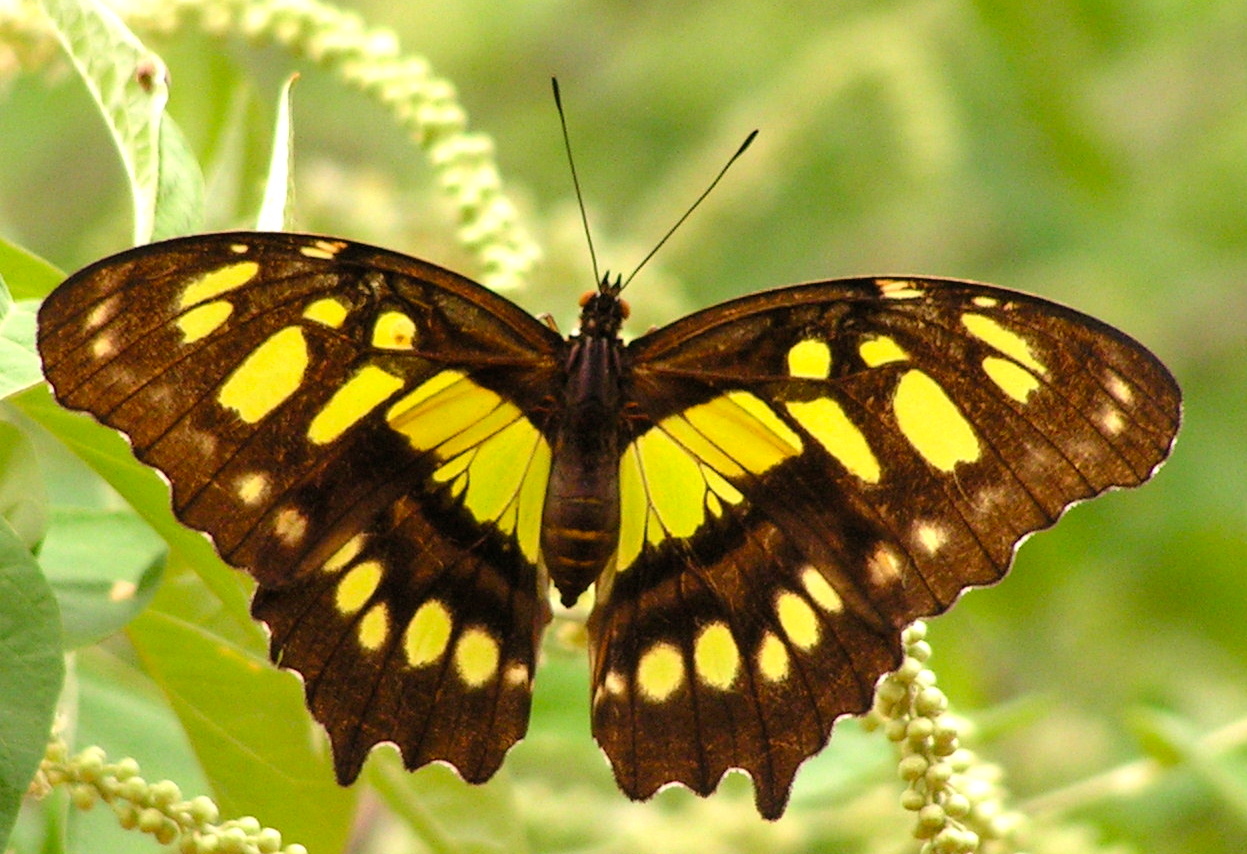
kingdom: Animalia
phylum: Arthropoda
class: Insecta
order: Lepidoptera
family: Nymphalidae
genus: Siproeta
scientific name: Siproeta stelenes
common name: Malachite
